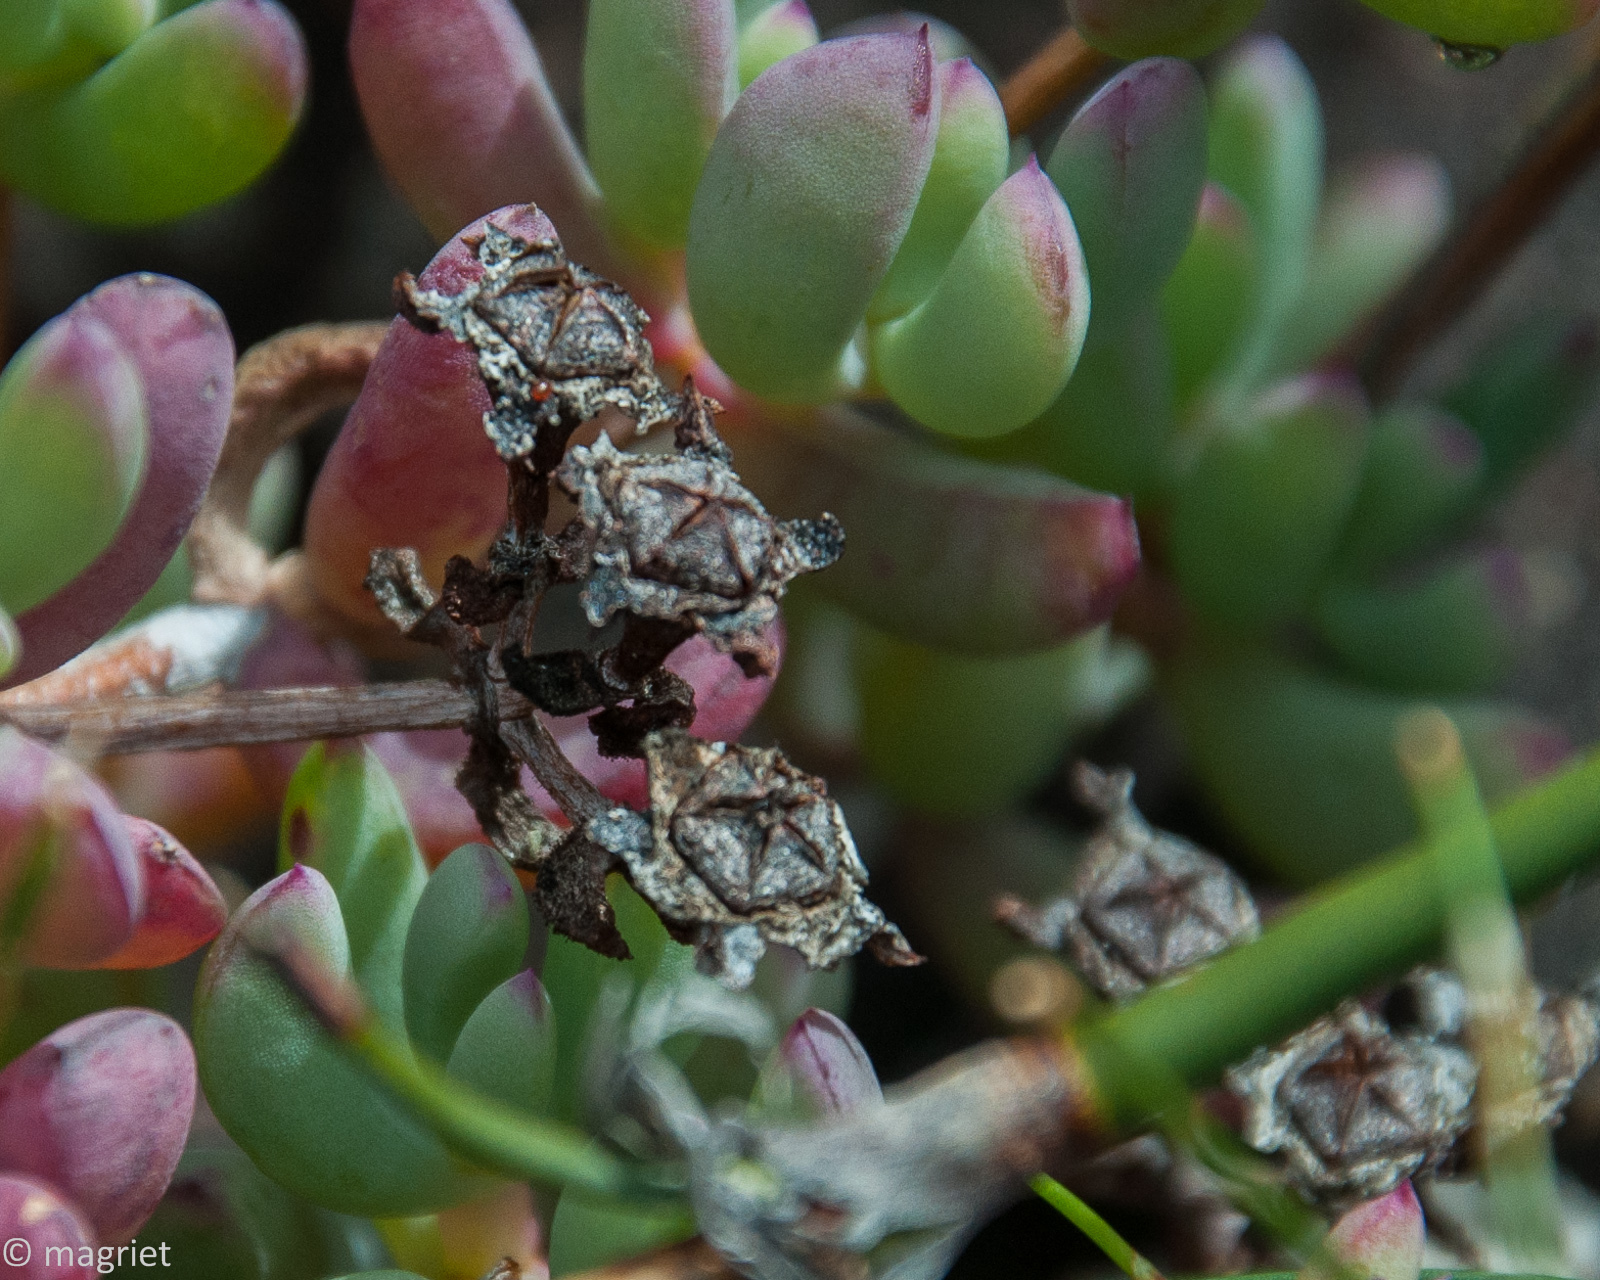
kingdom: Plantae
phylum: Tracheophyta
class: Magnoliopsida
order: Caryophyllales
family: Aizoaceae
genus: Oscularia
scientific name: Oscularia lunata
